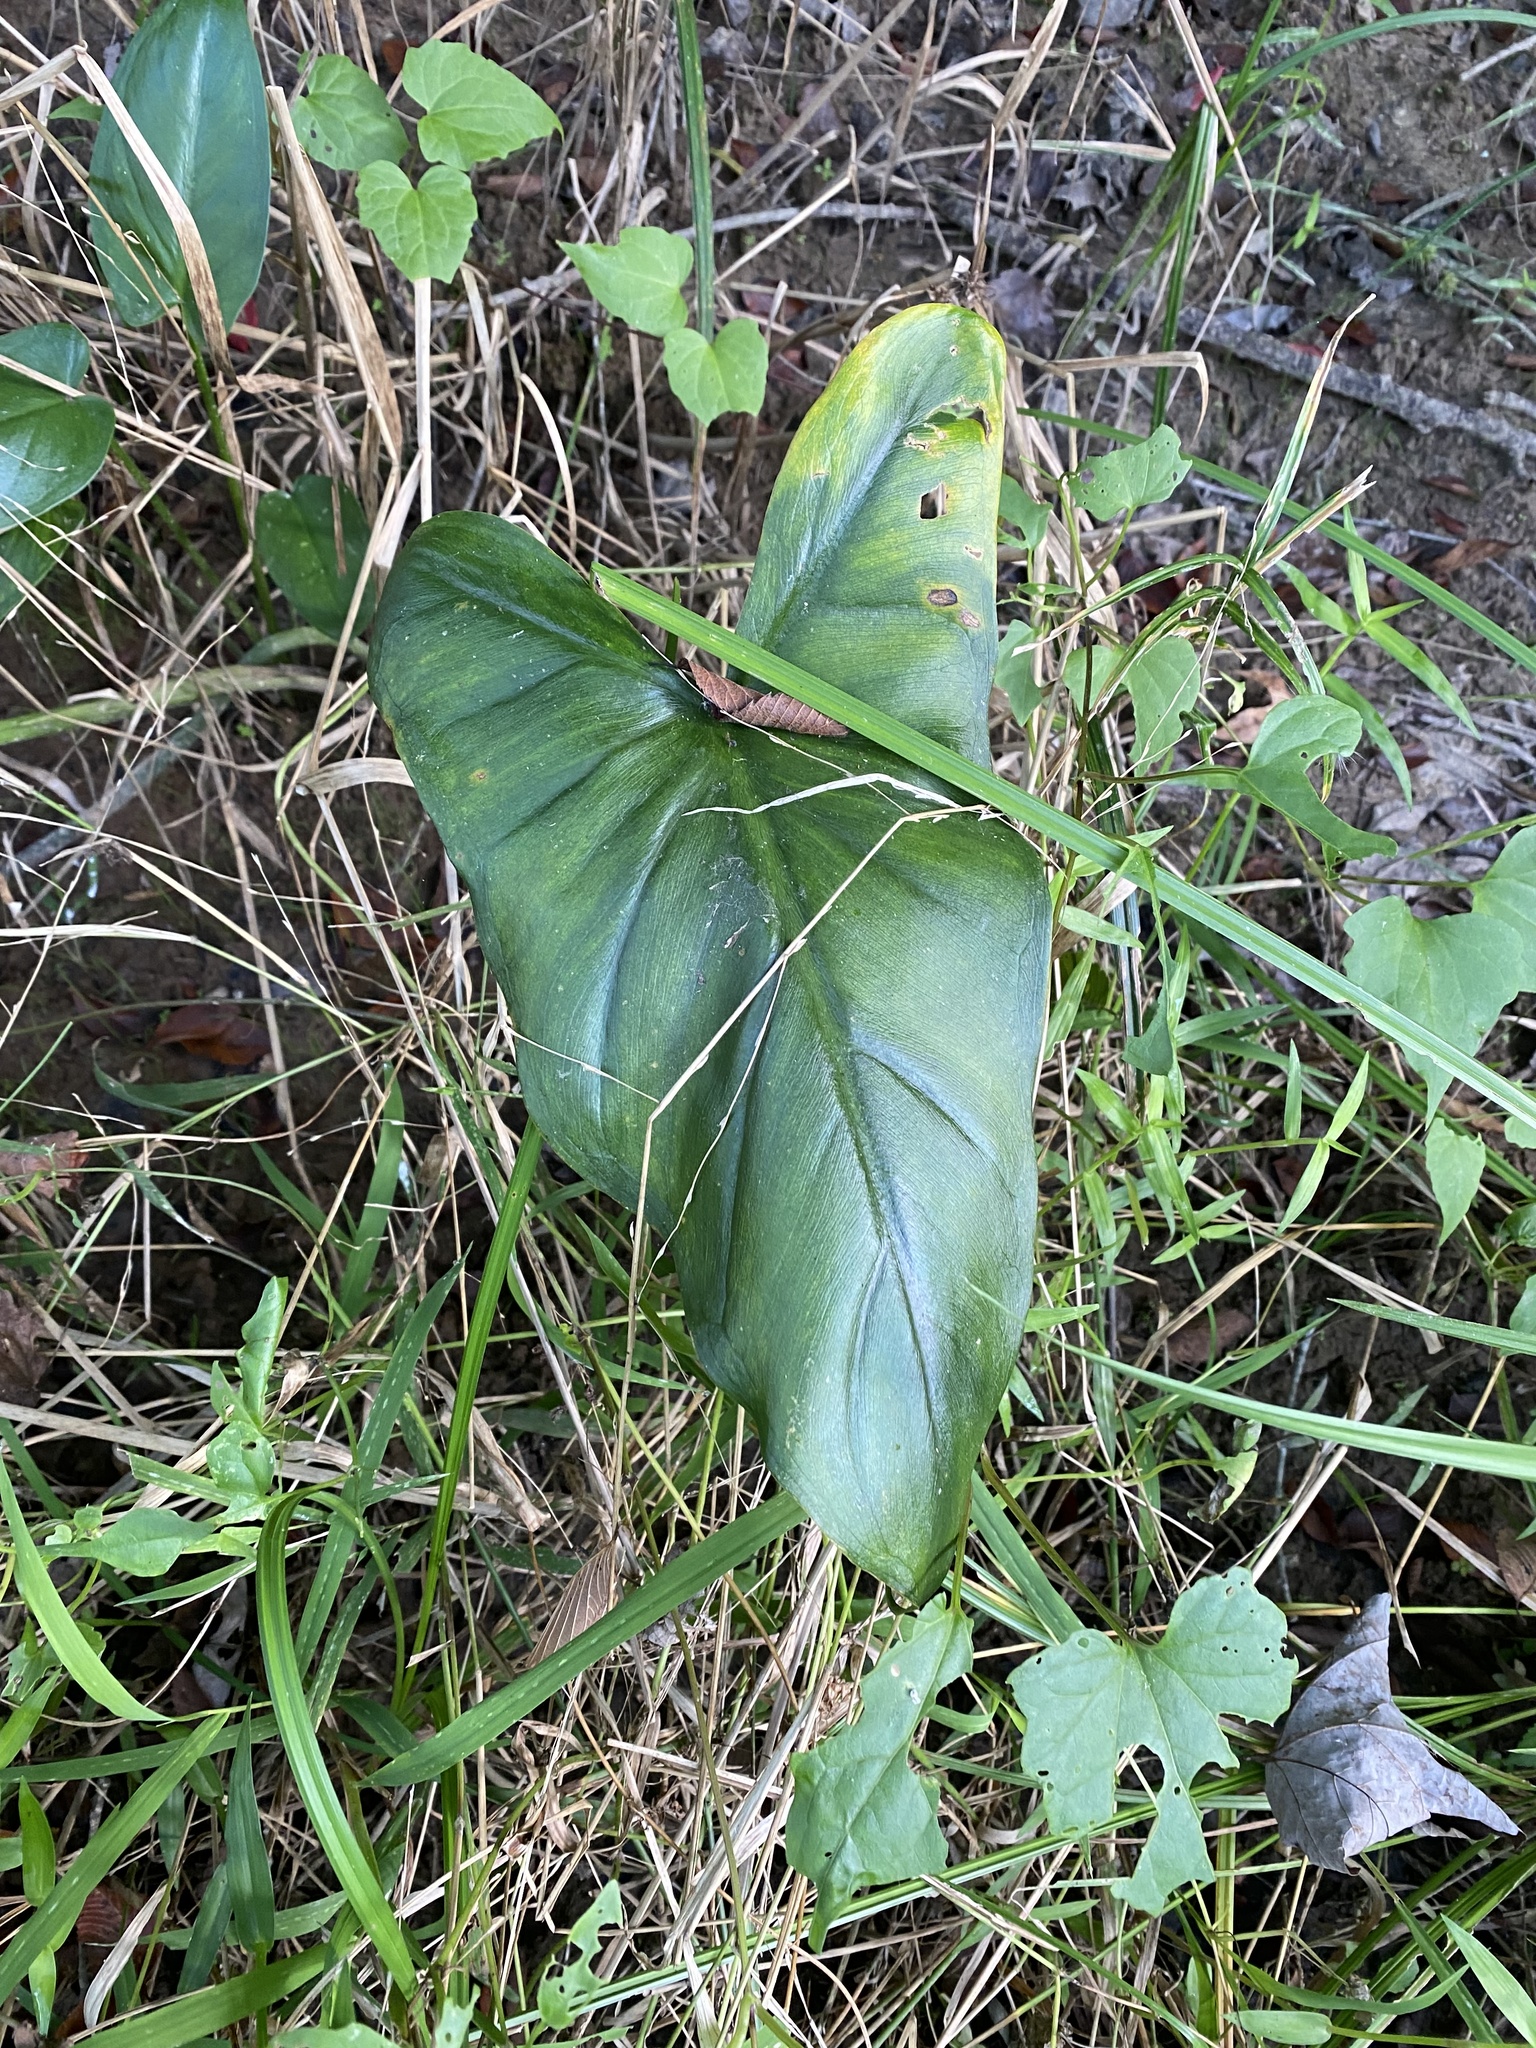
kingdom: Plantae
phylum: Tracheophyta
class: Liliopsida
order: Alismatales
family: Araceae
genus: Peltandra
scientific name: Peltandra virginica
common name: Arrow arum
